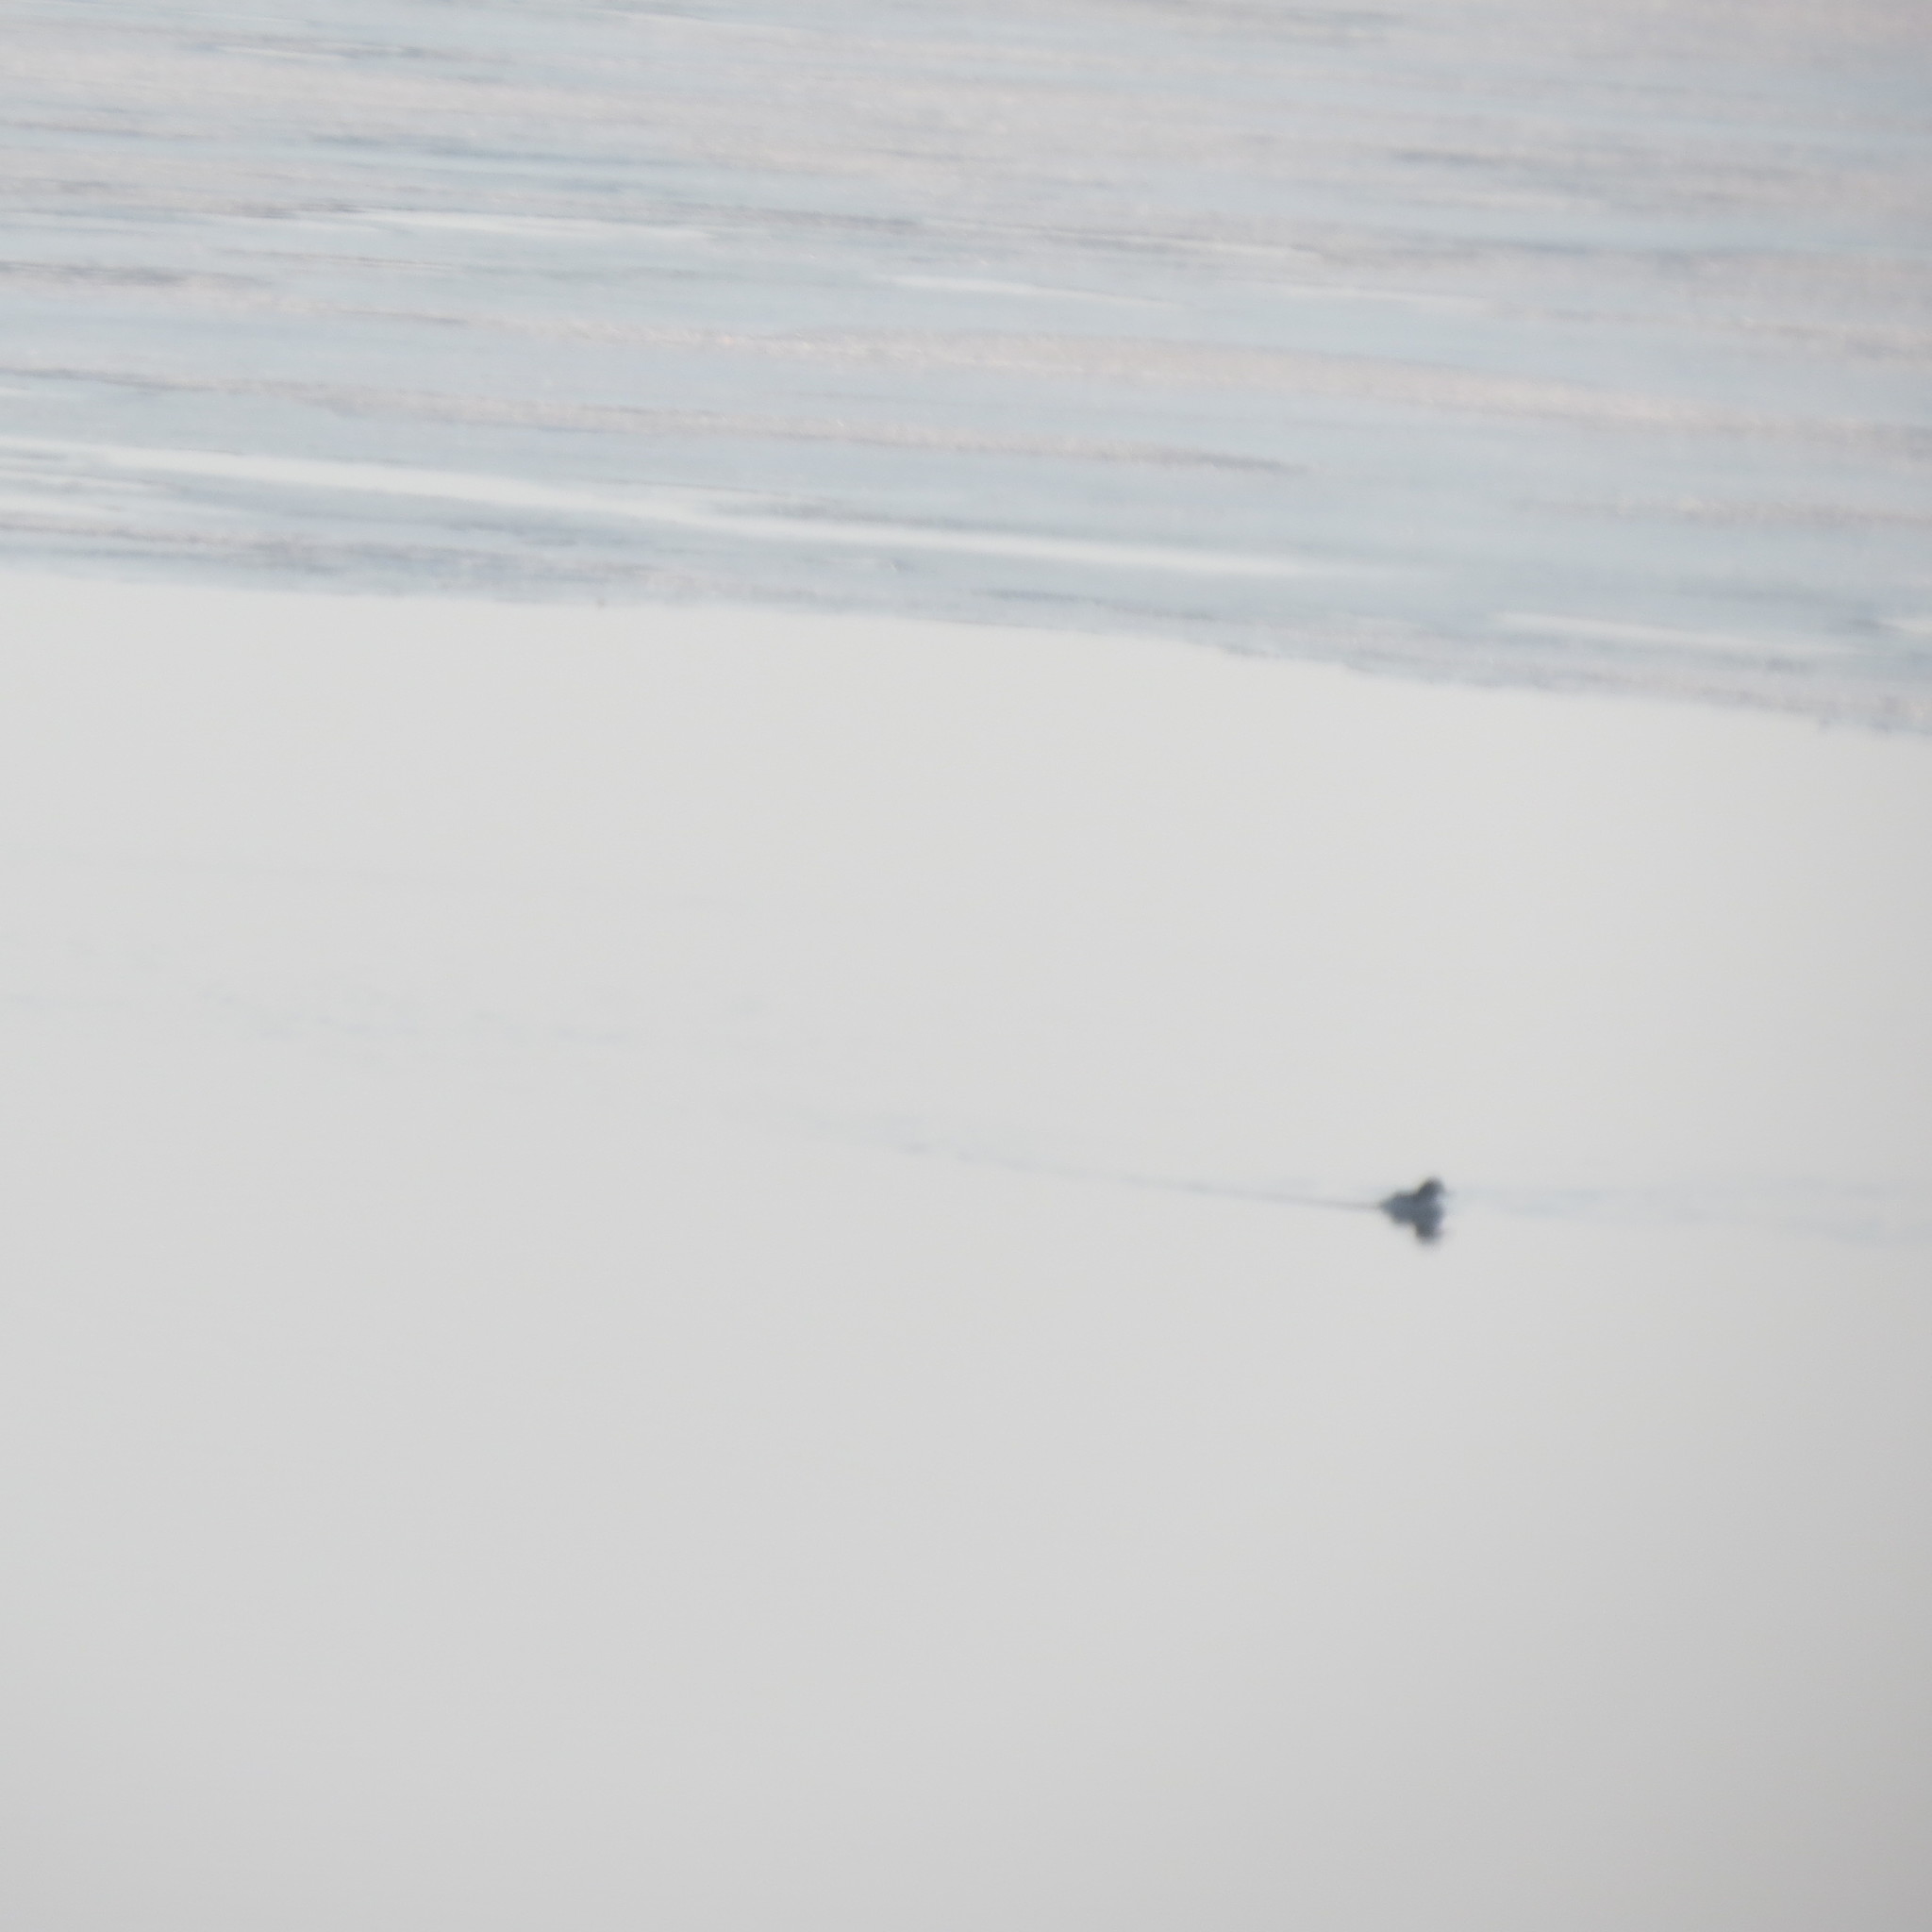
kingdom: Animalia
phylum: Chordata
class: Aves
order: Anseriformes
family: Anatidae
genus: Mergus
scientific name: Mergus merganser
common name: Common merganser
